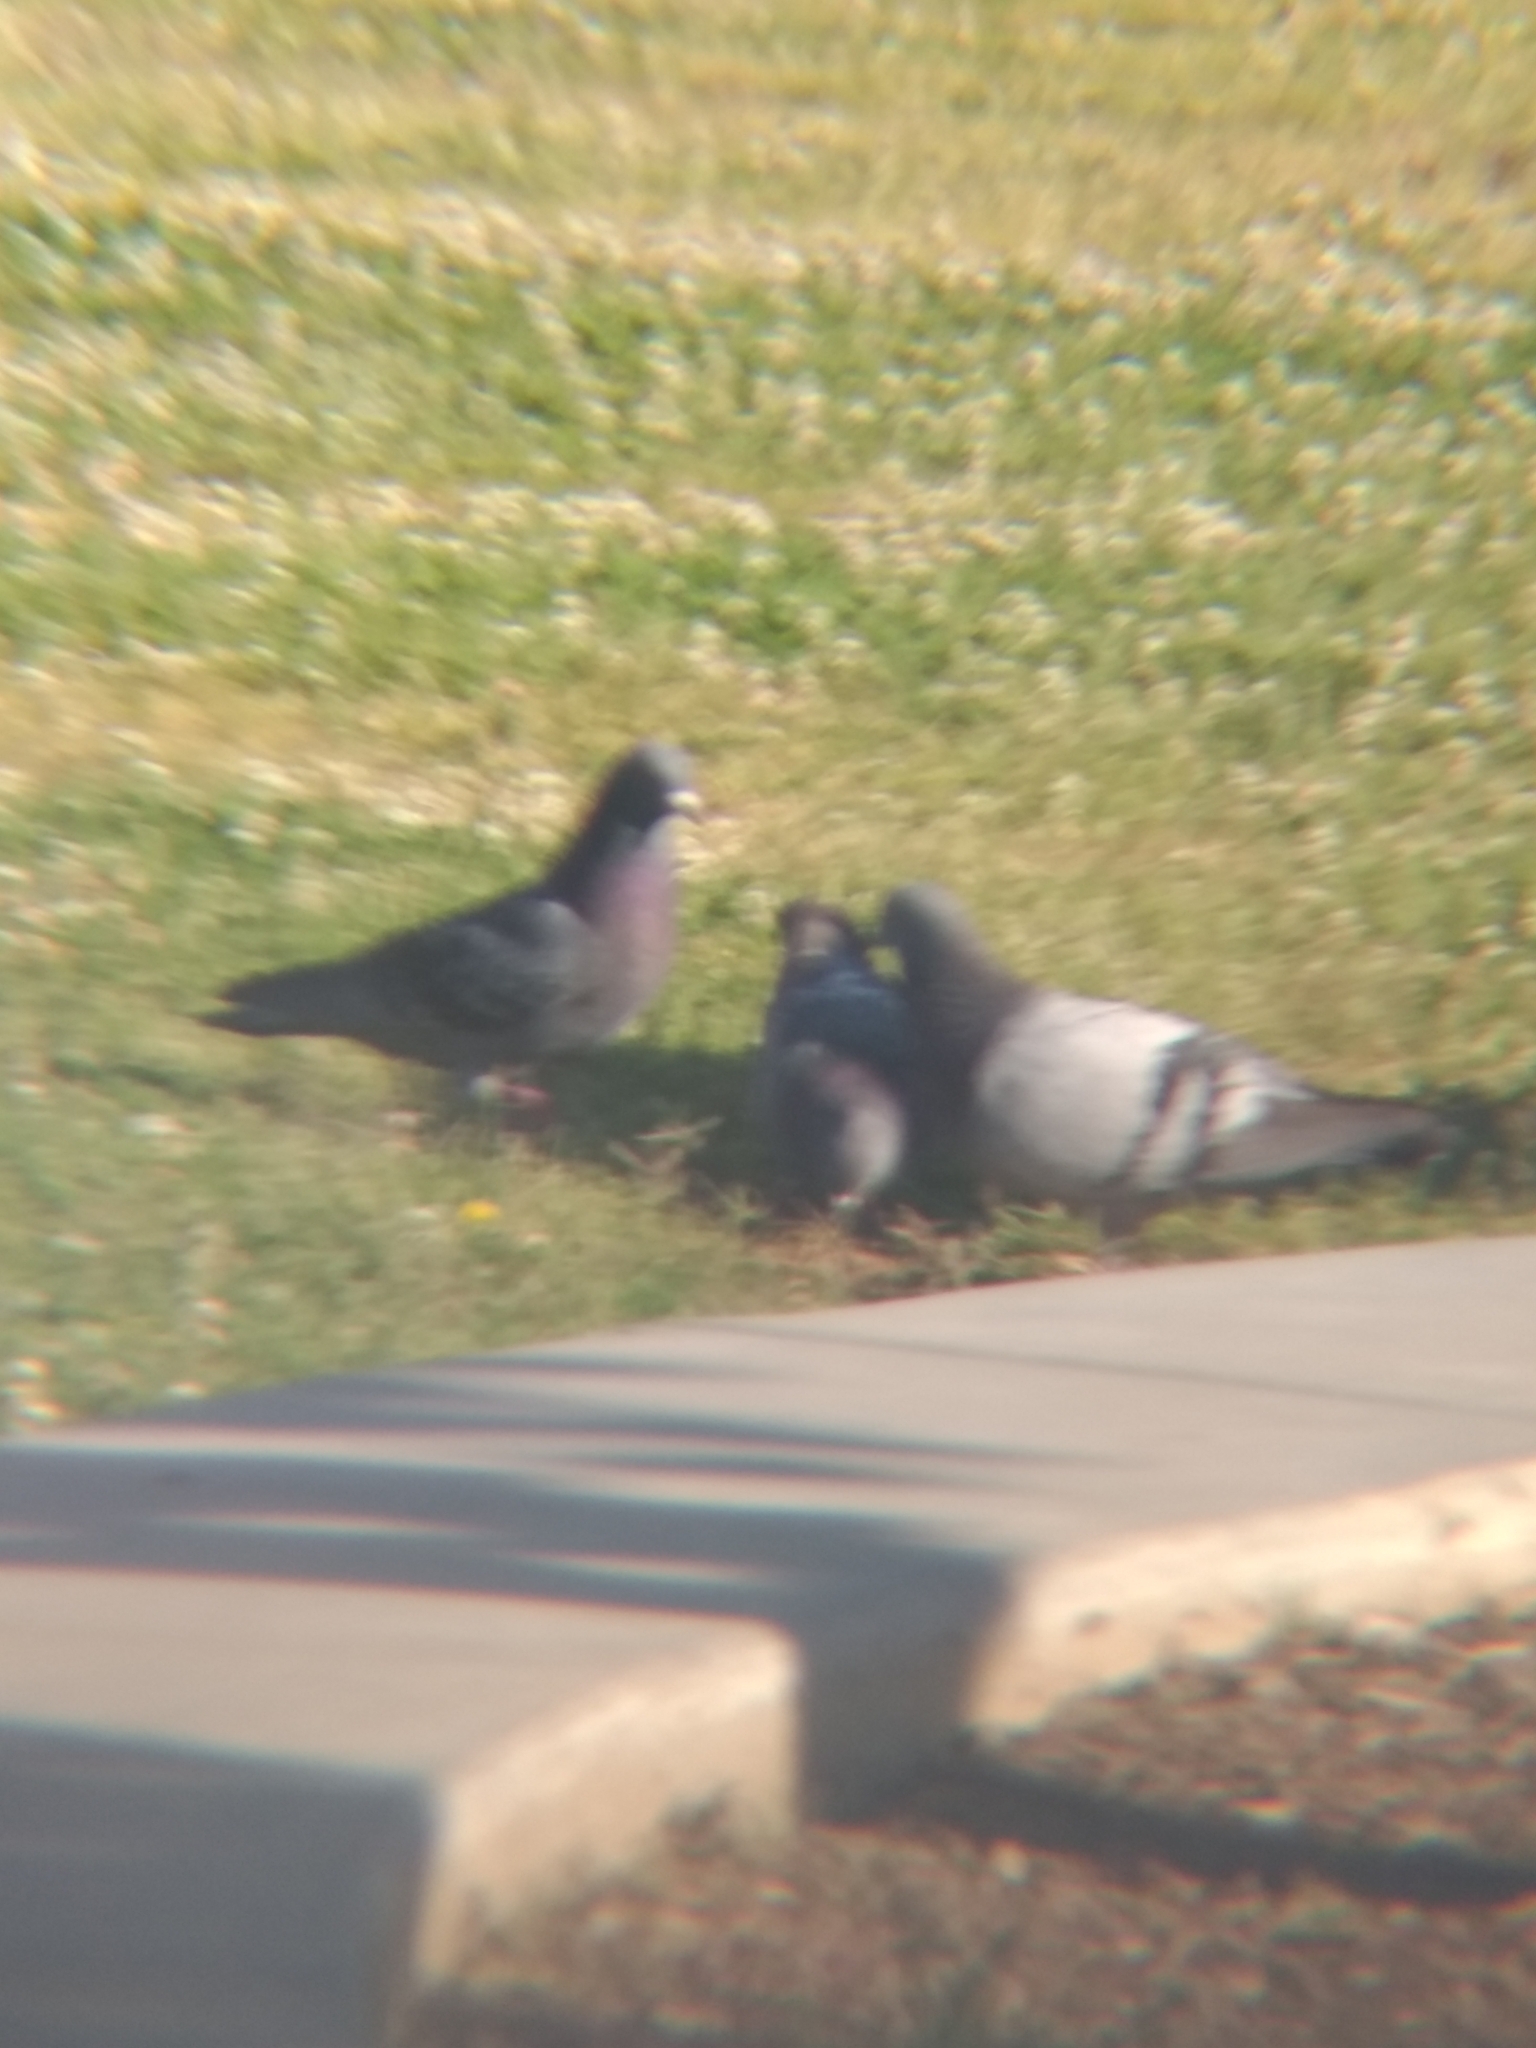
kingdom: Animalia
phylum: Chordata
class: Aves
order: Columbiformes
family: Columbidae
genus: Columba
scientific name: Columba livia
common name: Rock pigeon
